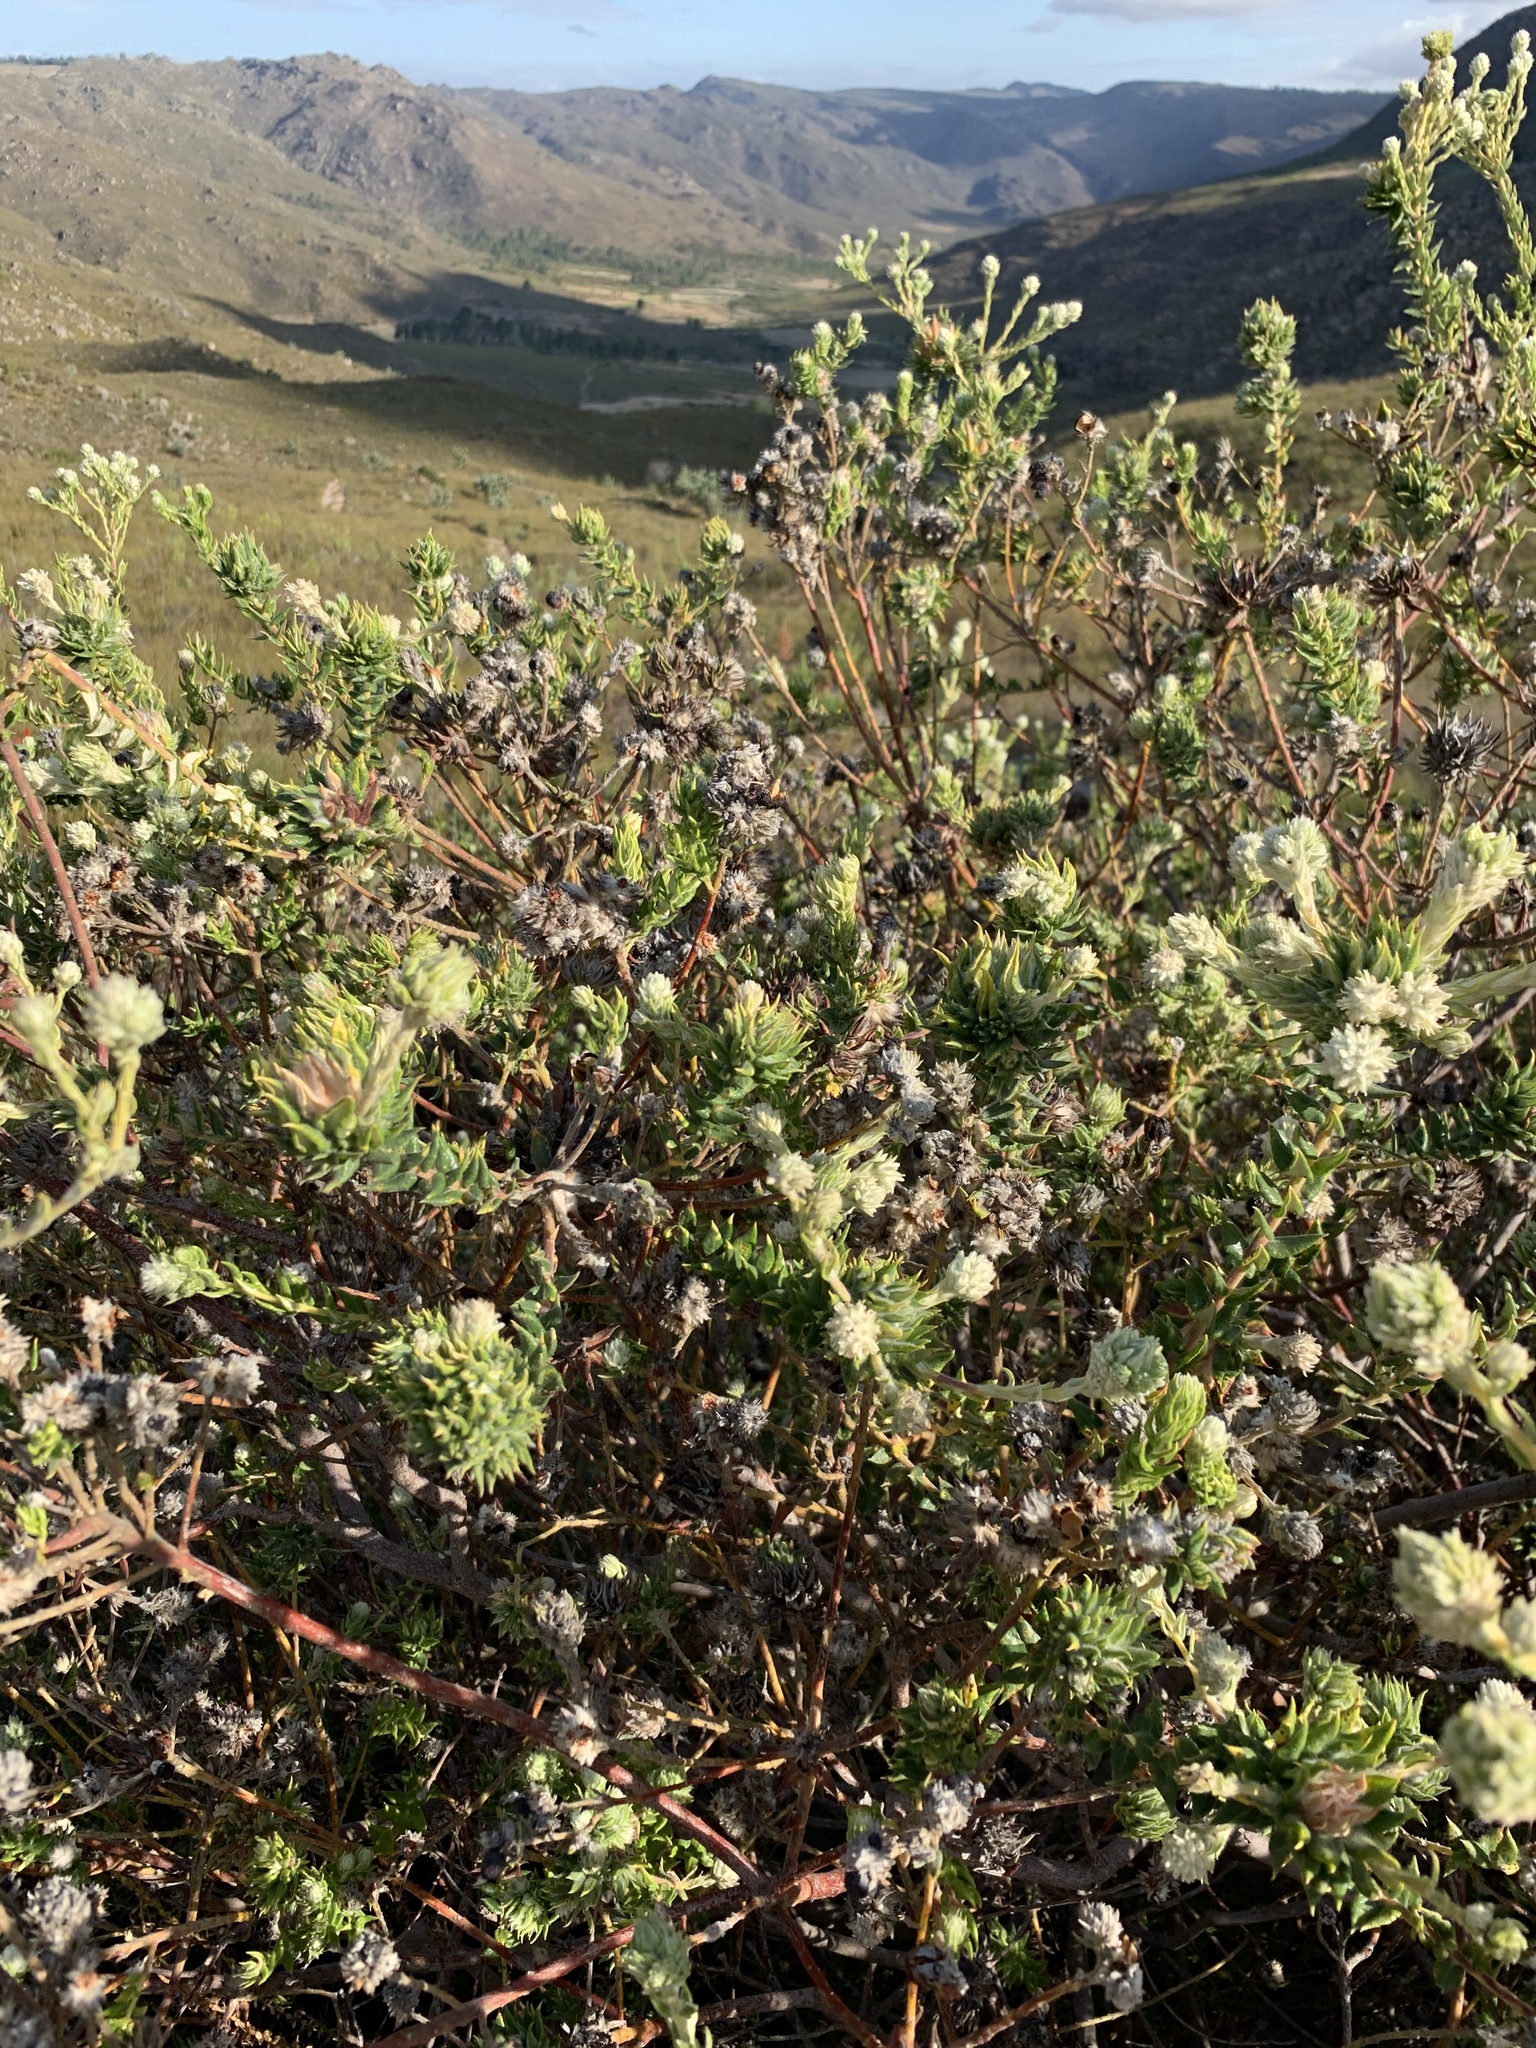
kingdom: Plantae
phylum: Tracheophyta
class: Magnoliopsida
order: Rosales
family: Rhamnaceae
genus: Phylica
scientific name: Phylica spicata
